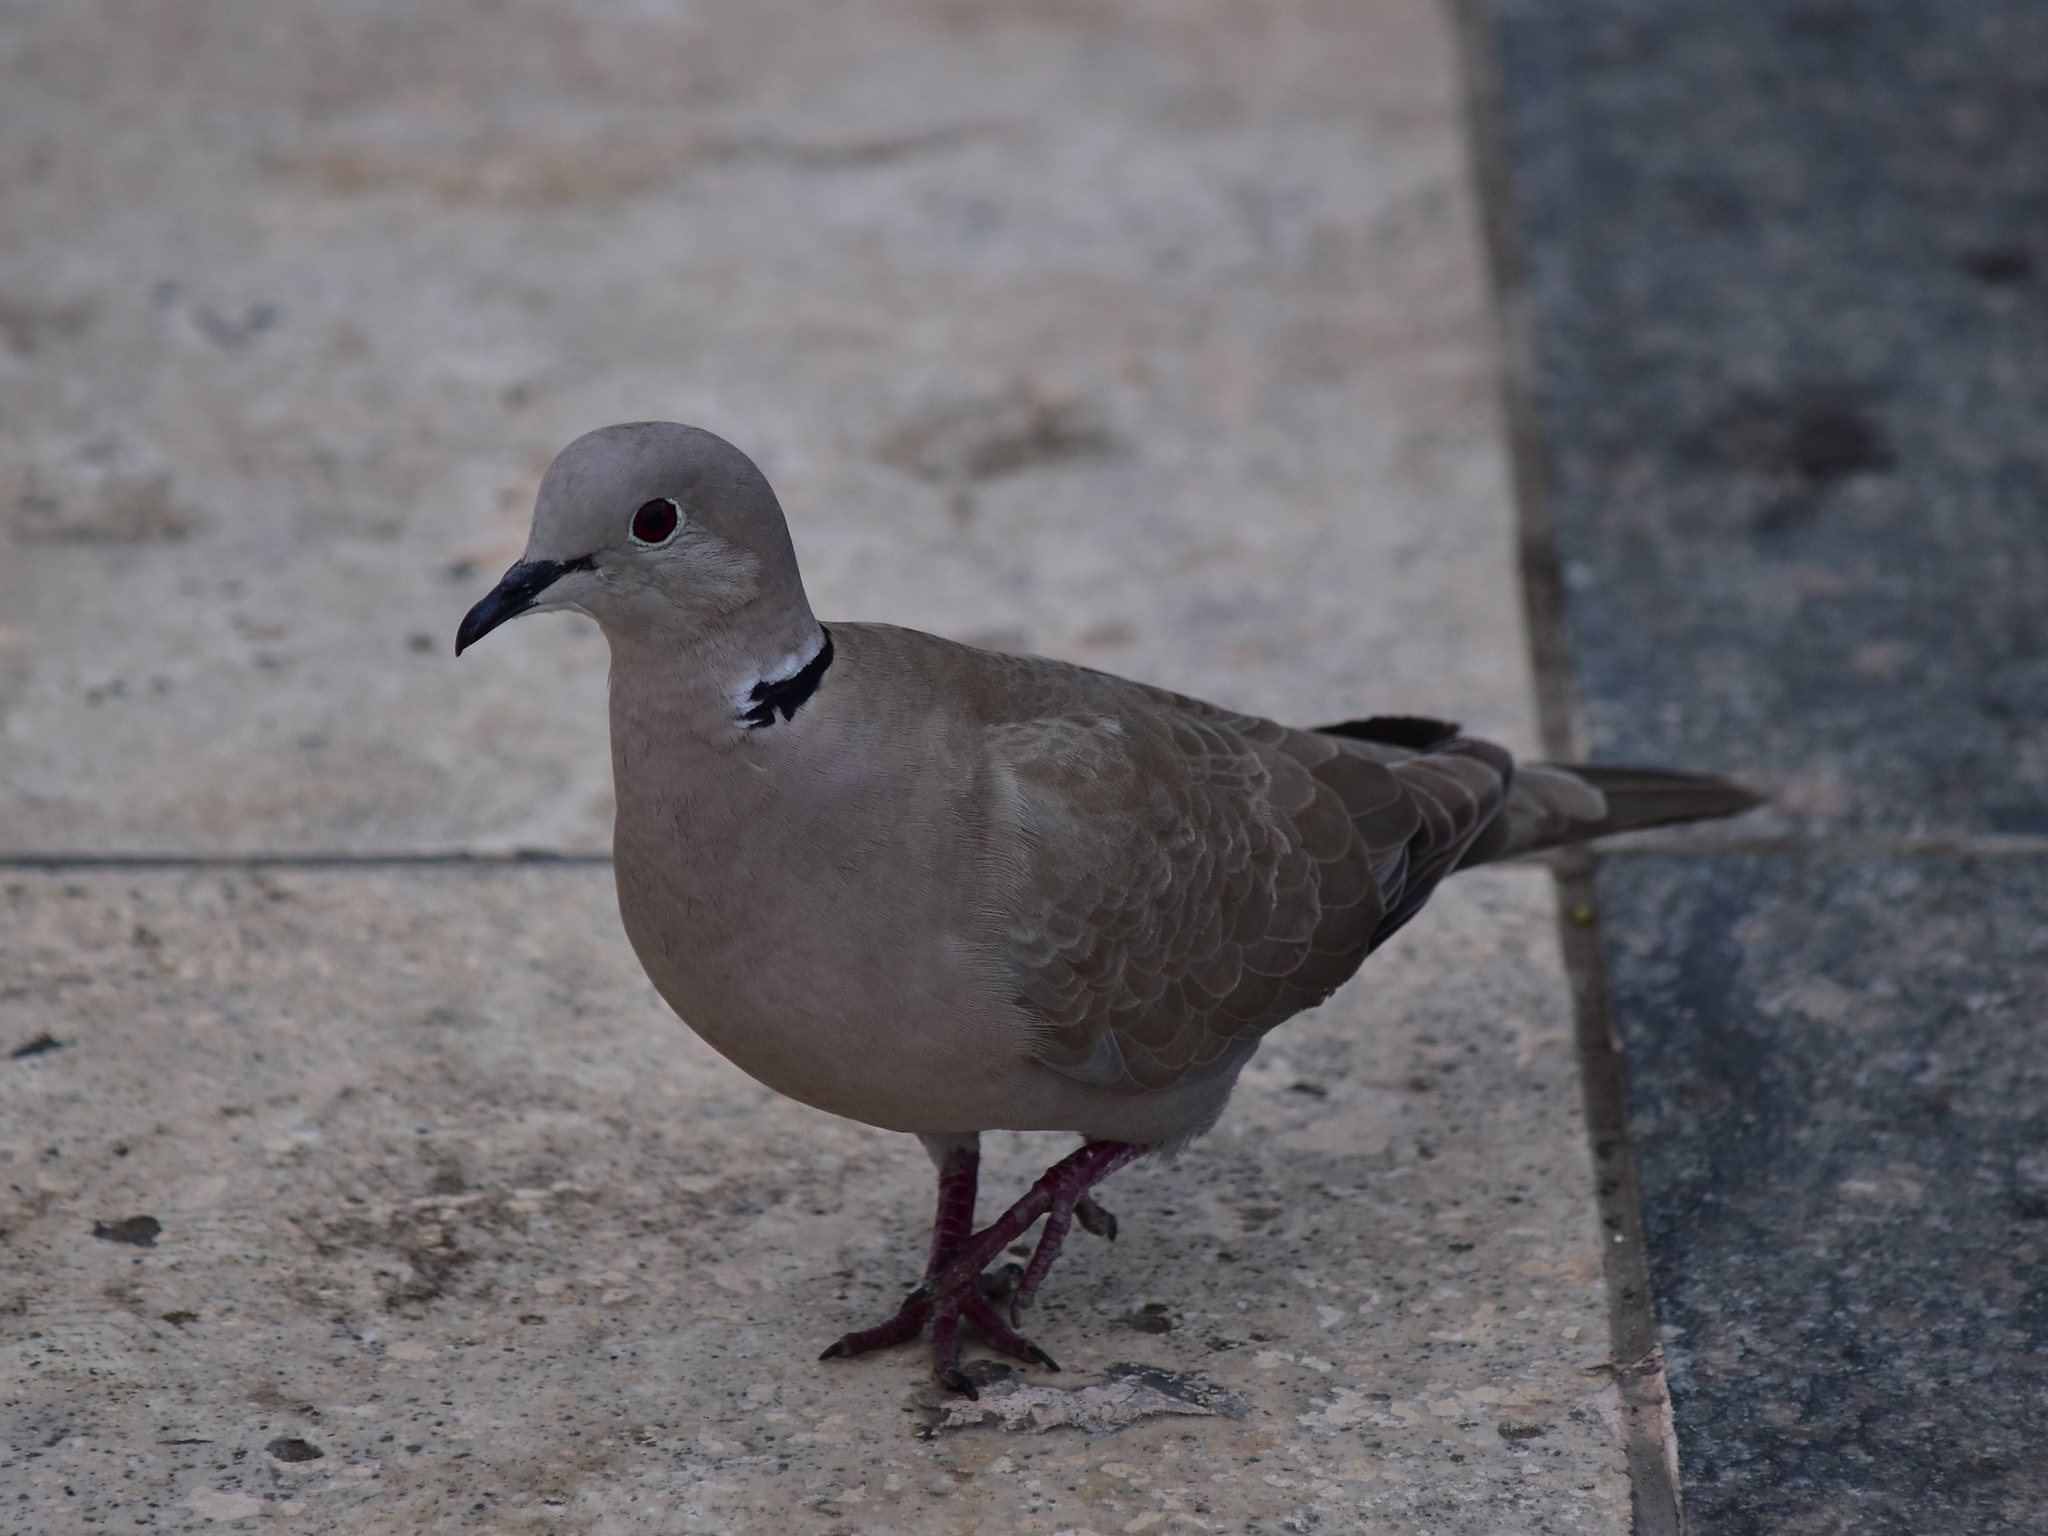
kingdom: Animalia
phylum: Chordata
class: Aves
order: Columbiformes
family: Columbidae
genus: Streptopelia
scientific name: Streptopelia decaocto
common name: Eurasian collared dove
